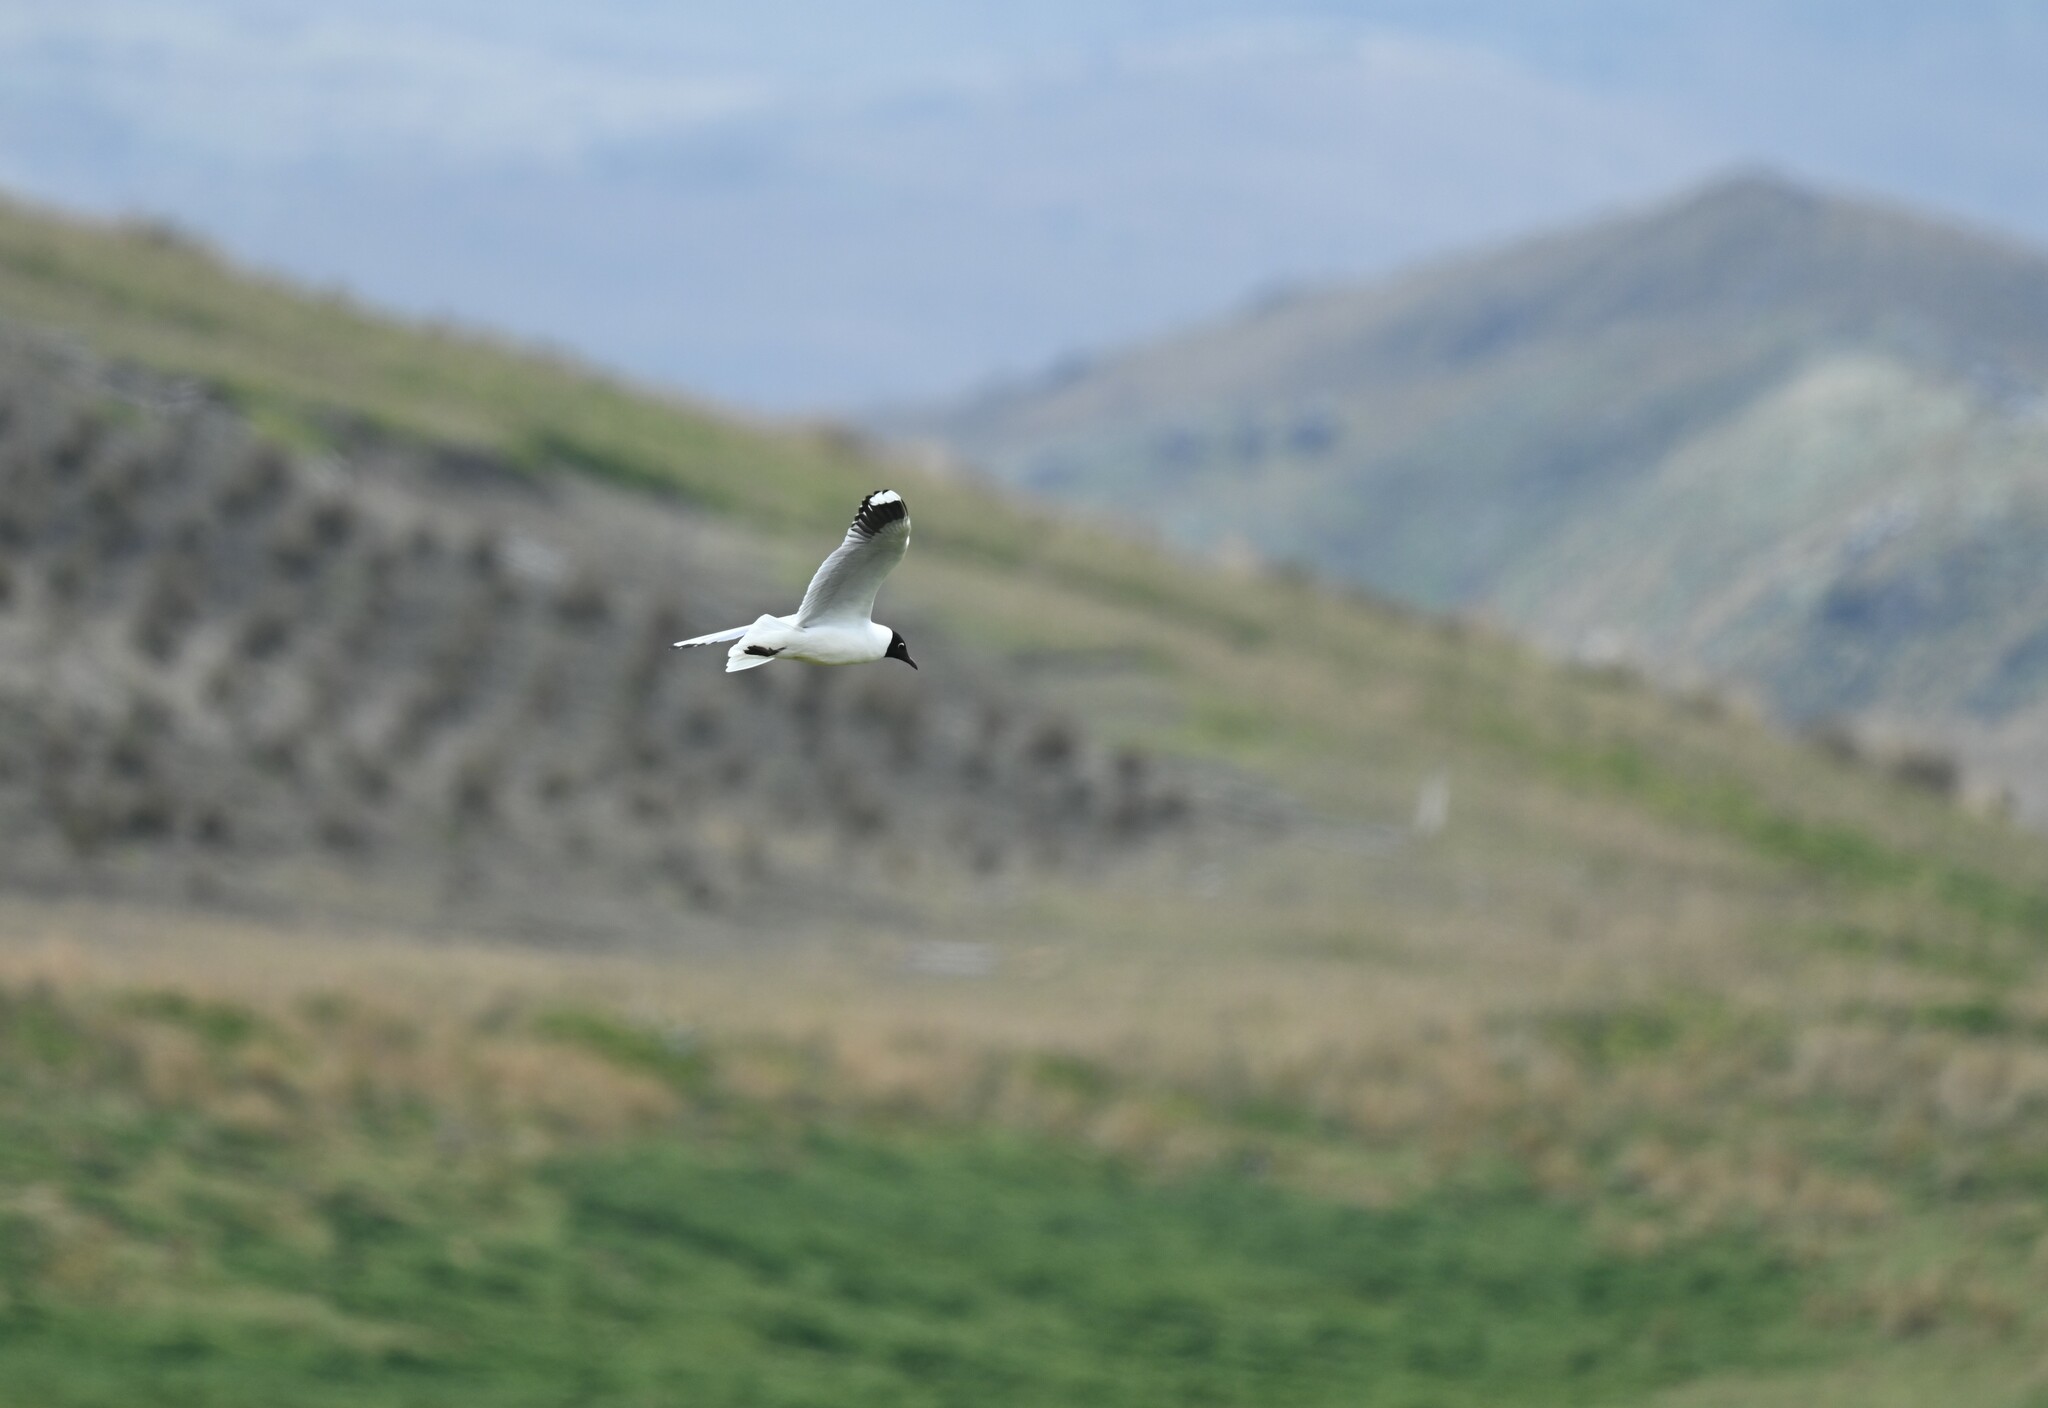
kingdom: Animalia
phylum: Chordata
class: Aves
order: Charadriiformes
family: Laridae
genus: Chroicocephalus
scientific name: Chroicocephalus serranus
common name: Andean gull
